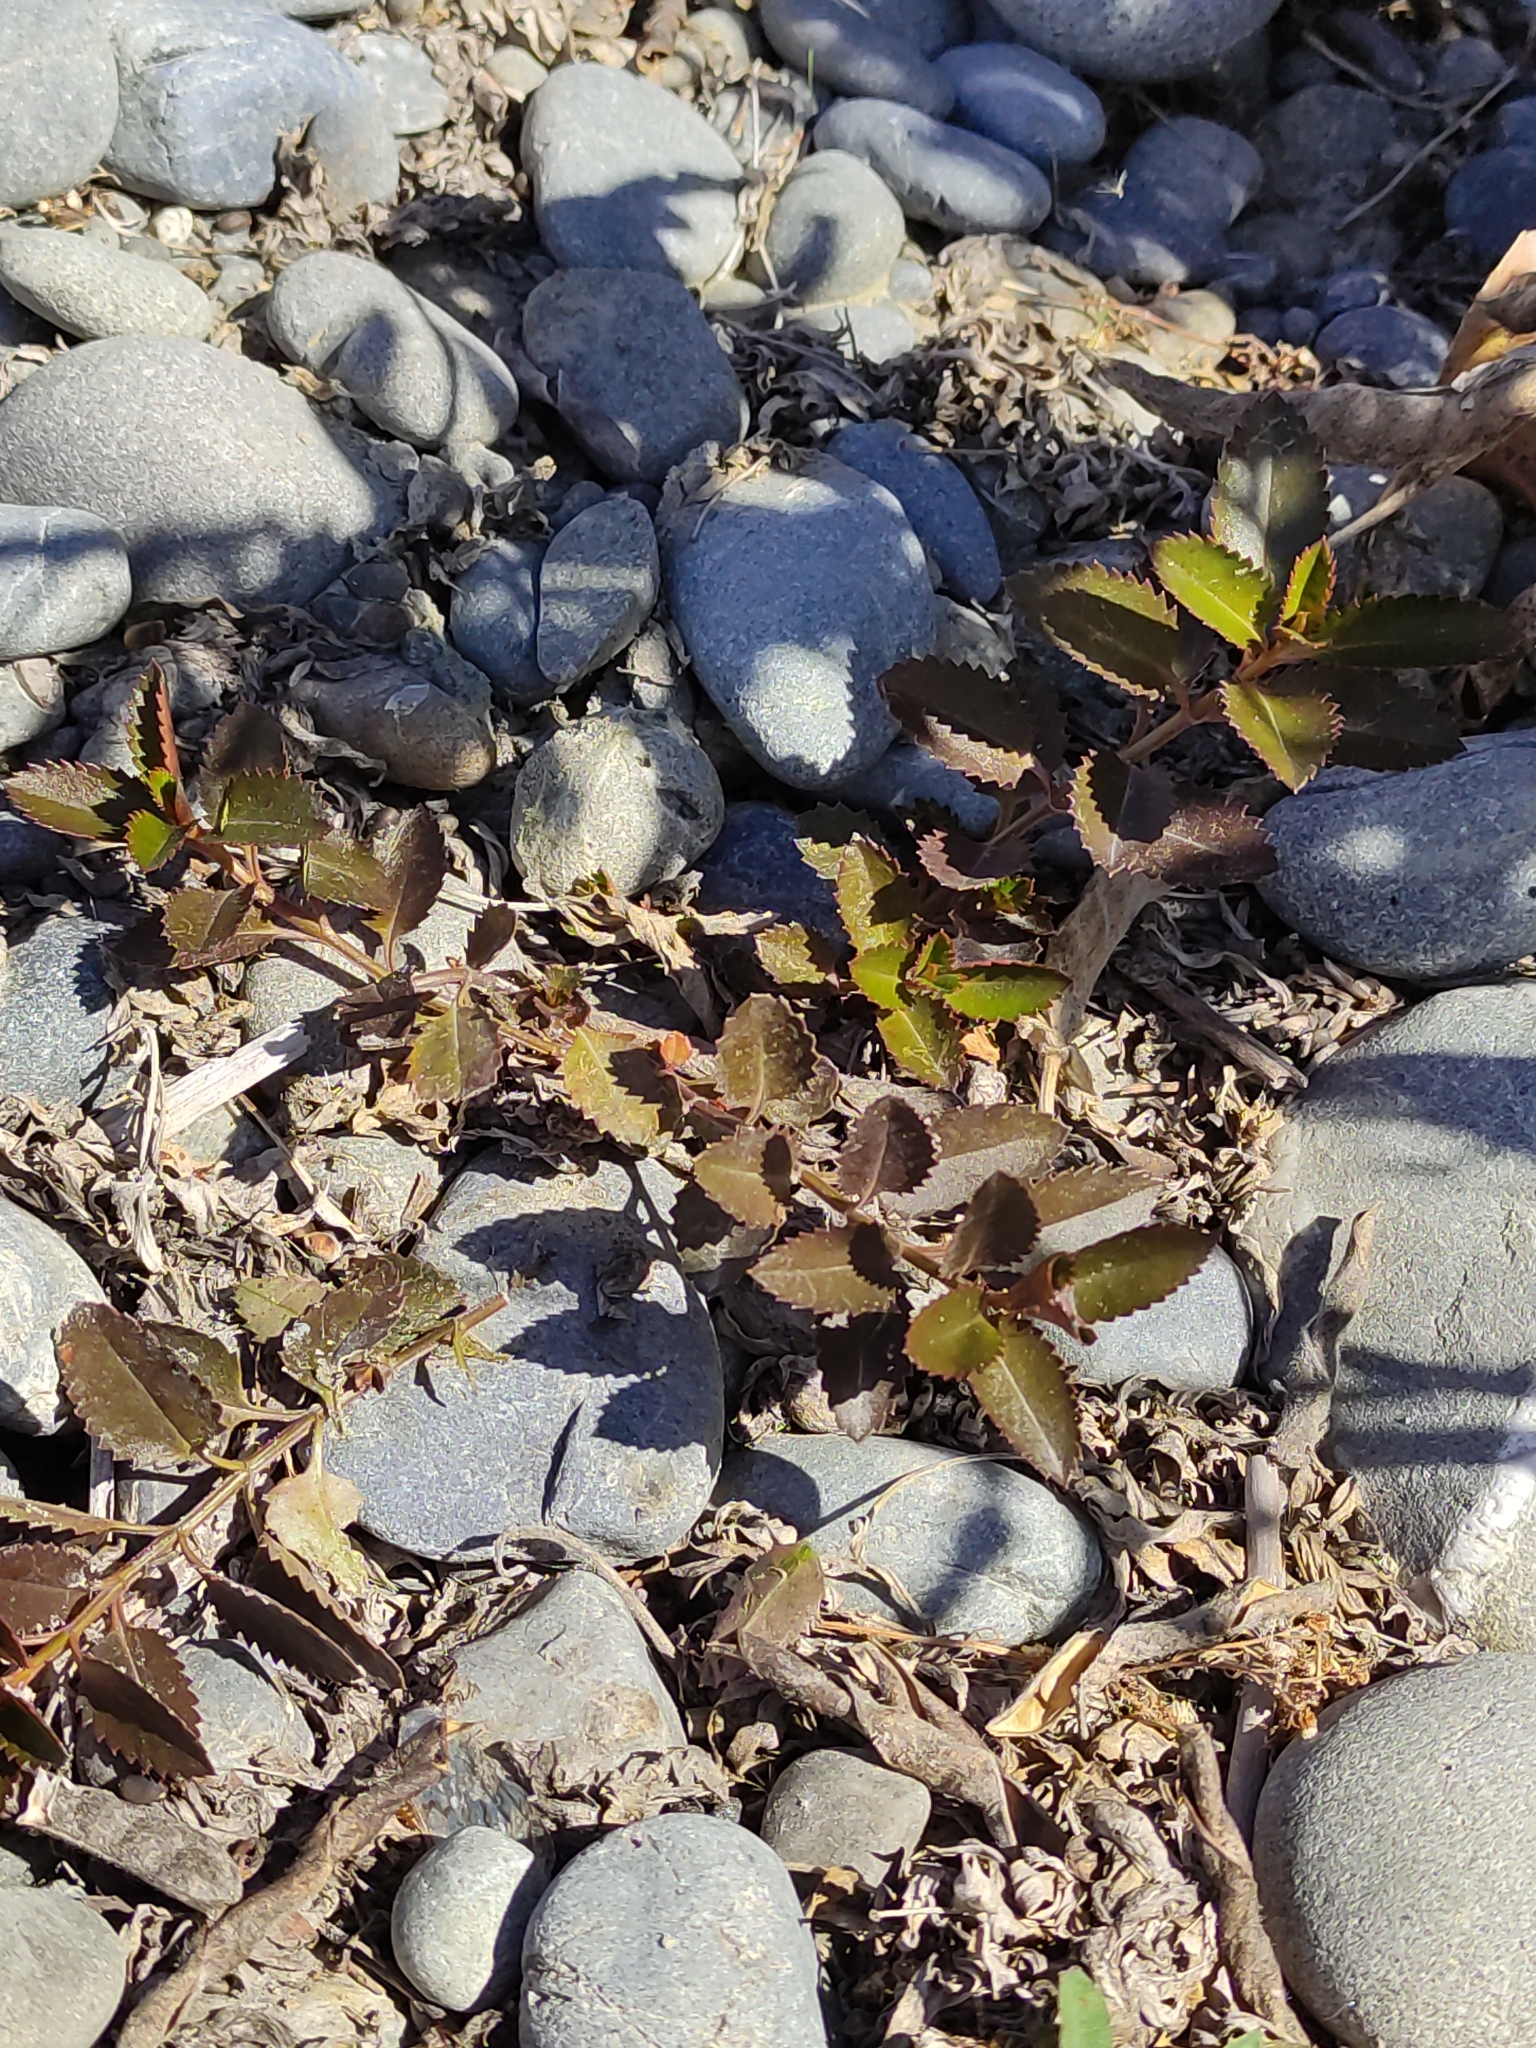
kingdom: Plantae
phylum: Tracheophyta
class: Magnoliopsida
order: Saxifragales
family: Haloragaceae
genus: Haloragis
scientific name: Haloragis erecta
